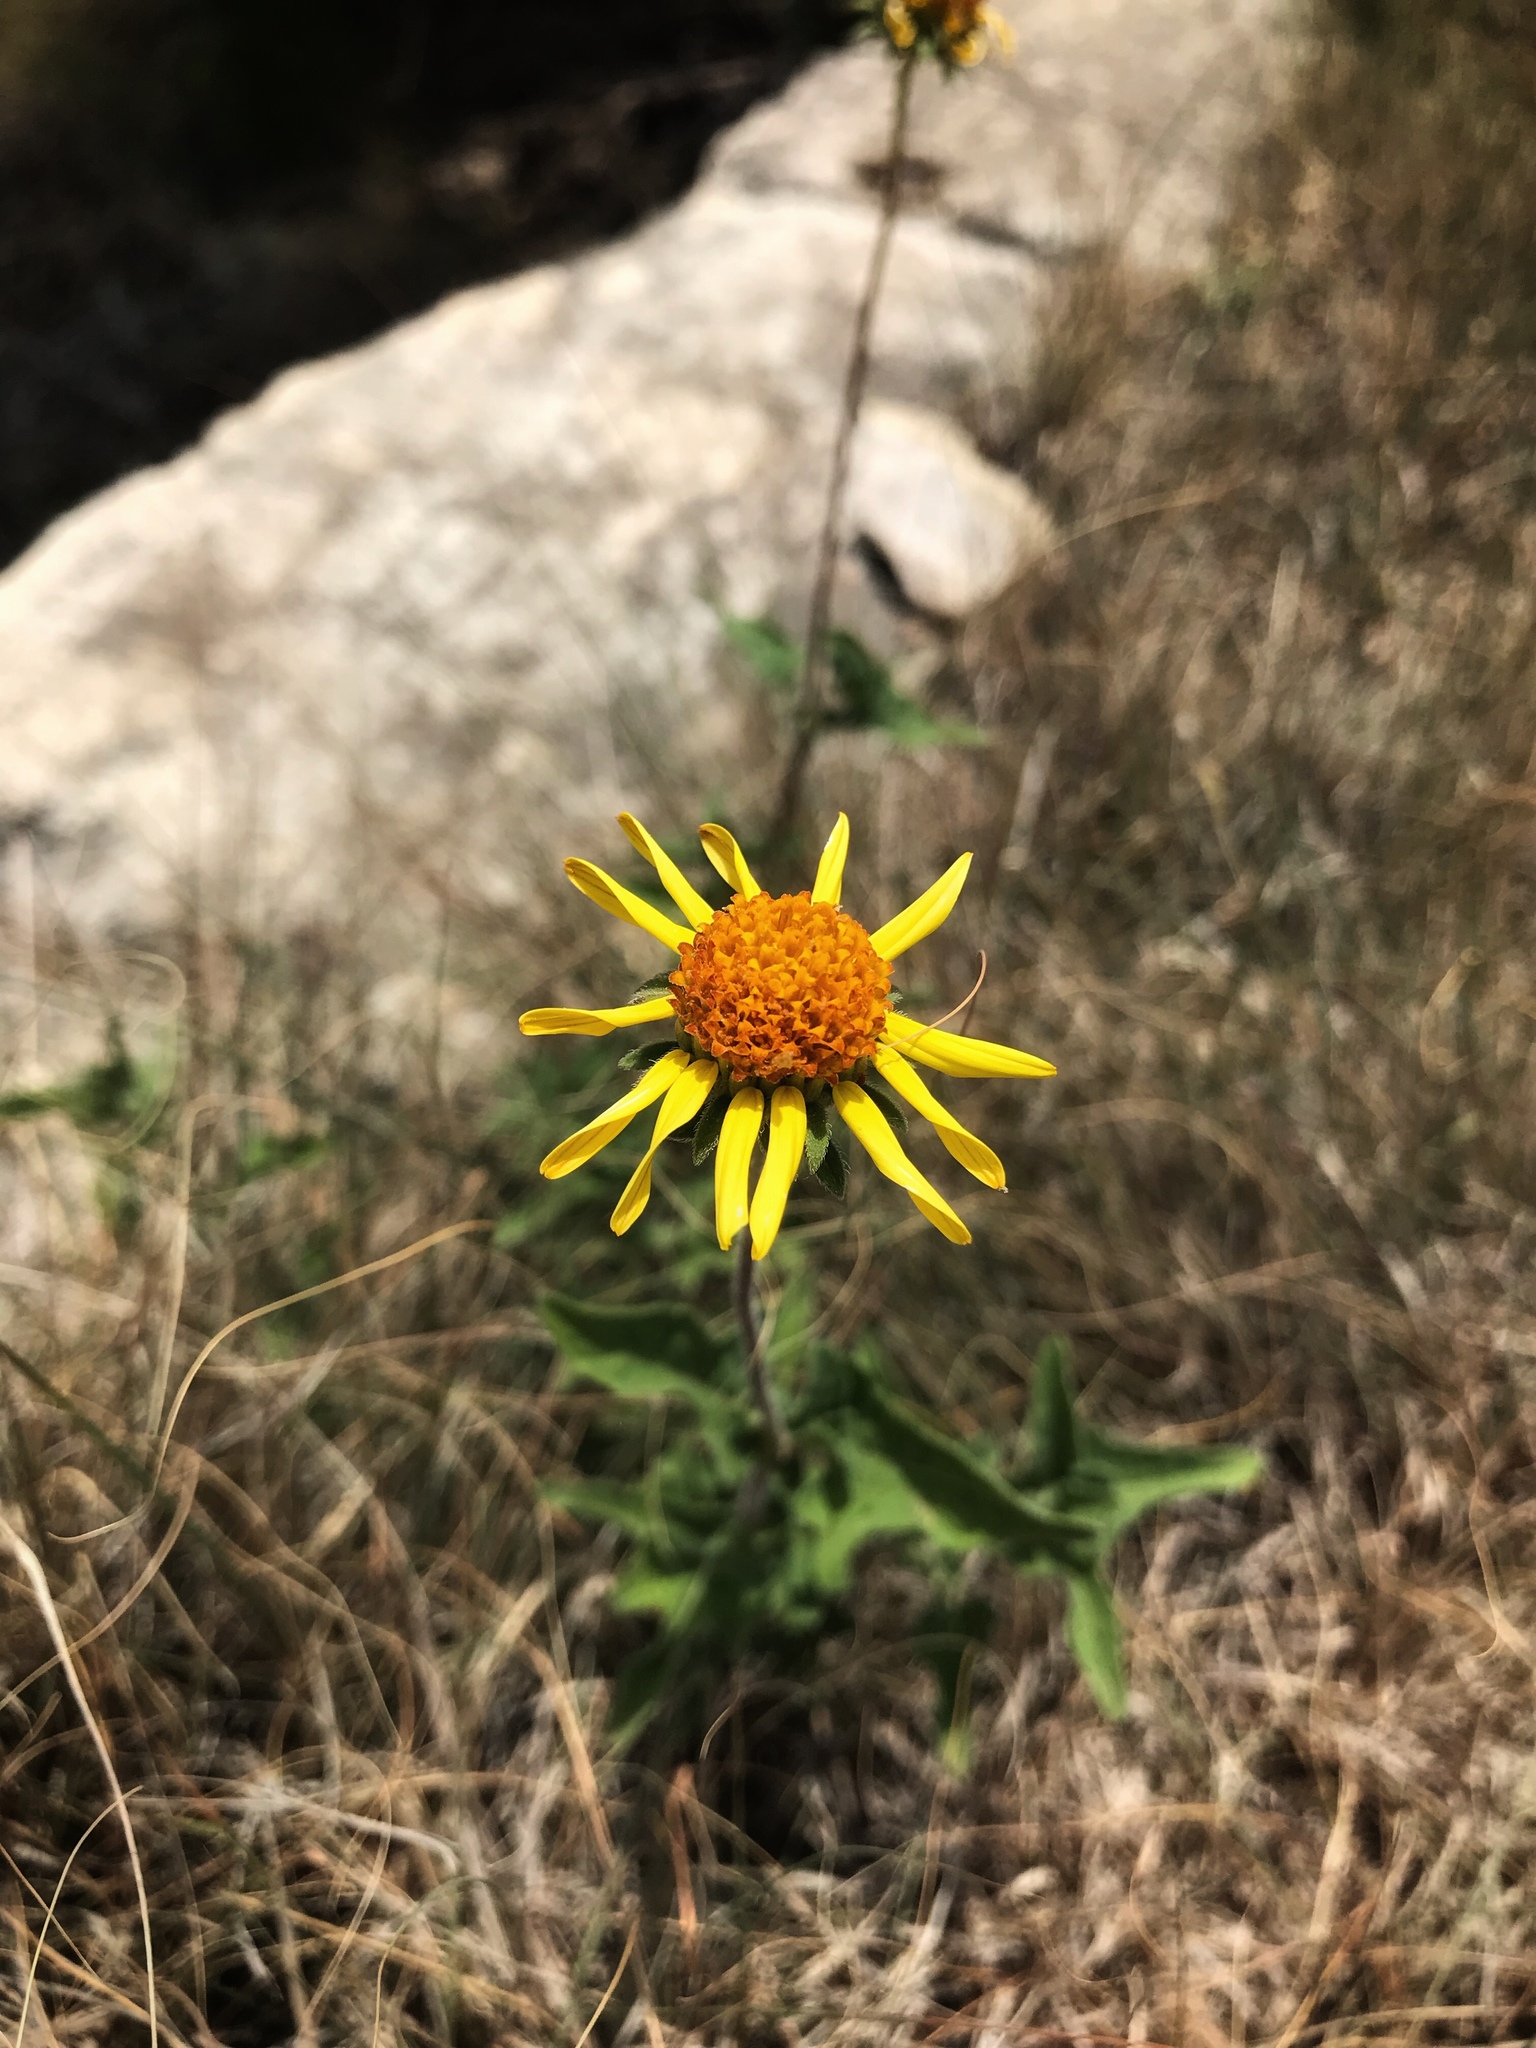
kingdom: Plantae
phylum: Tracheophyta
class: Magnoliopsida
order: Asterales
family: Asteraceae
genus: Simsia
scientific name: Simsia calva
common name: Awnless bush-sunflower
